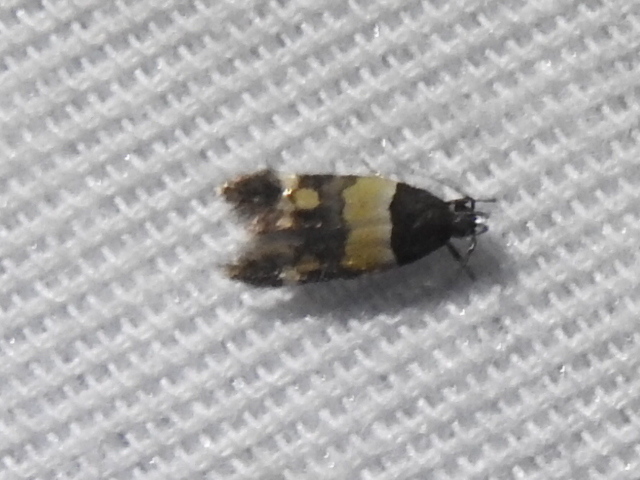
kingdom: Animalia
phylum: Arthropoda
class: Insecta
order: Lepidoptera
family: Momphidae
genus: Triclonella
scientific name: Triclonella determinatella
